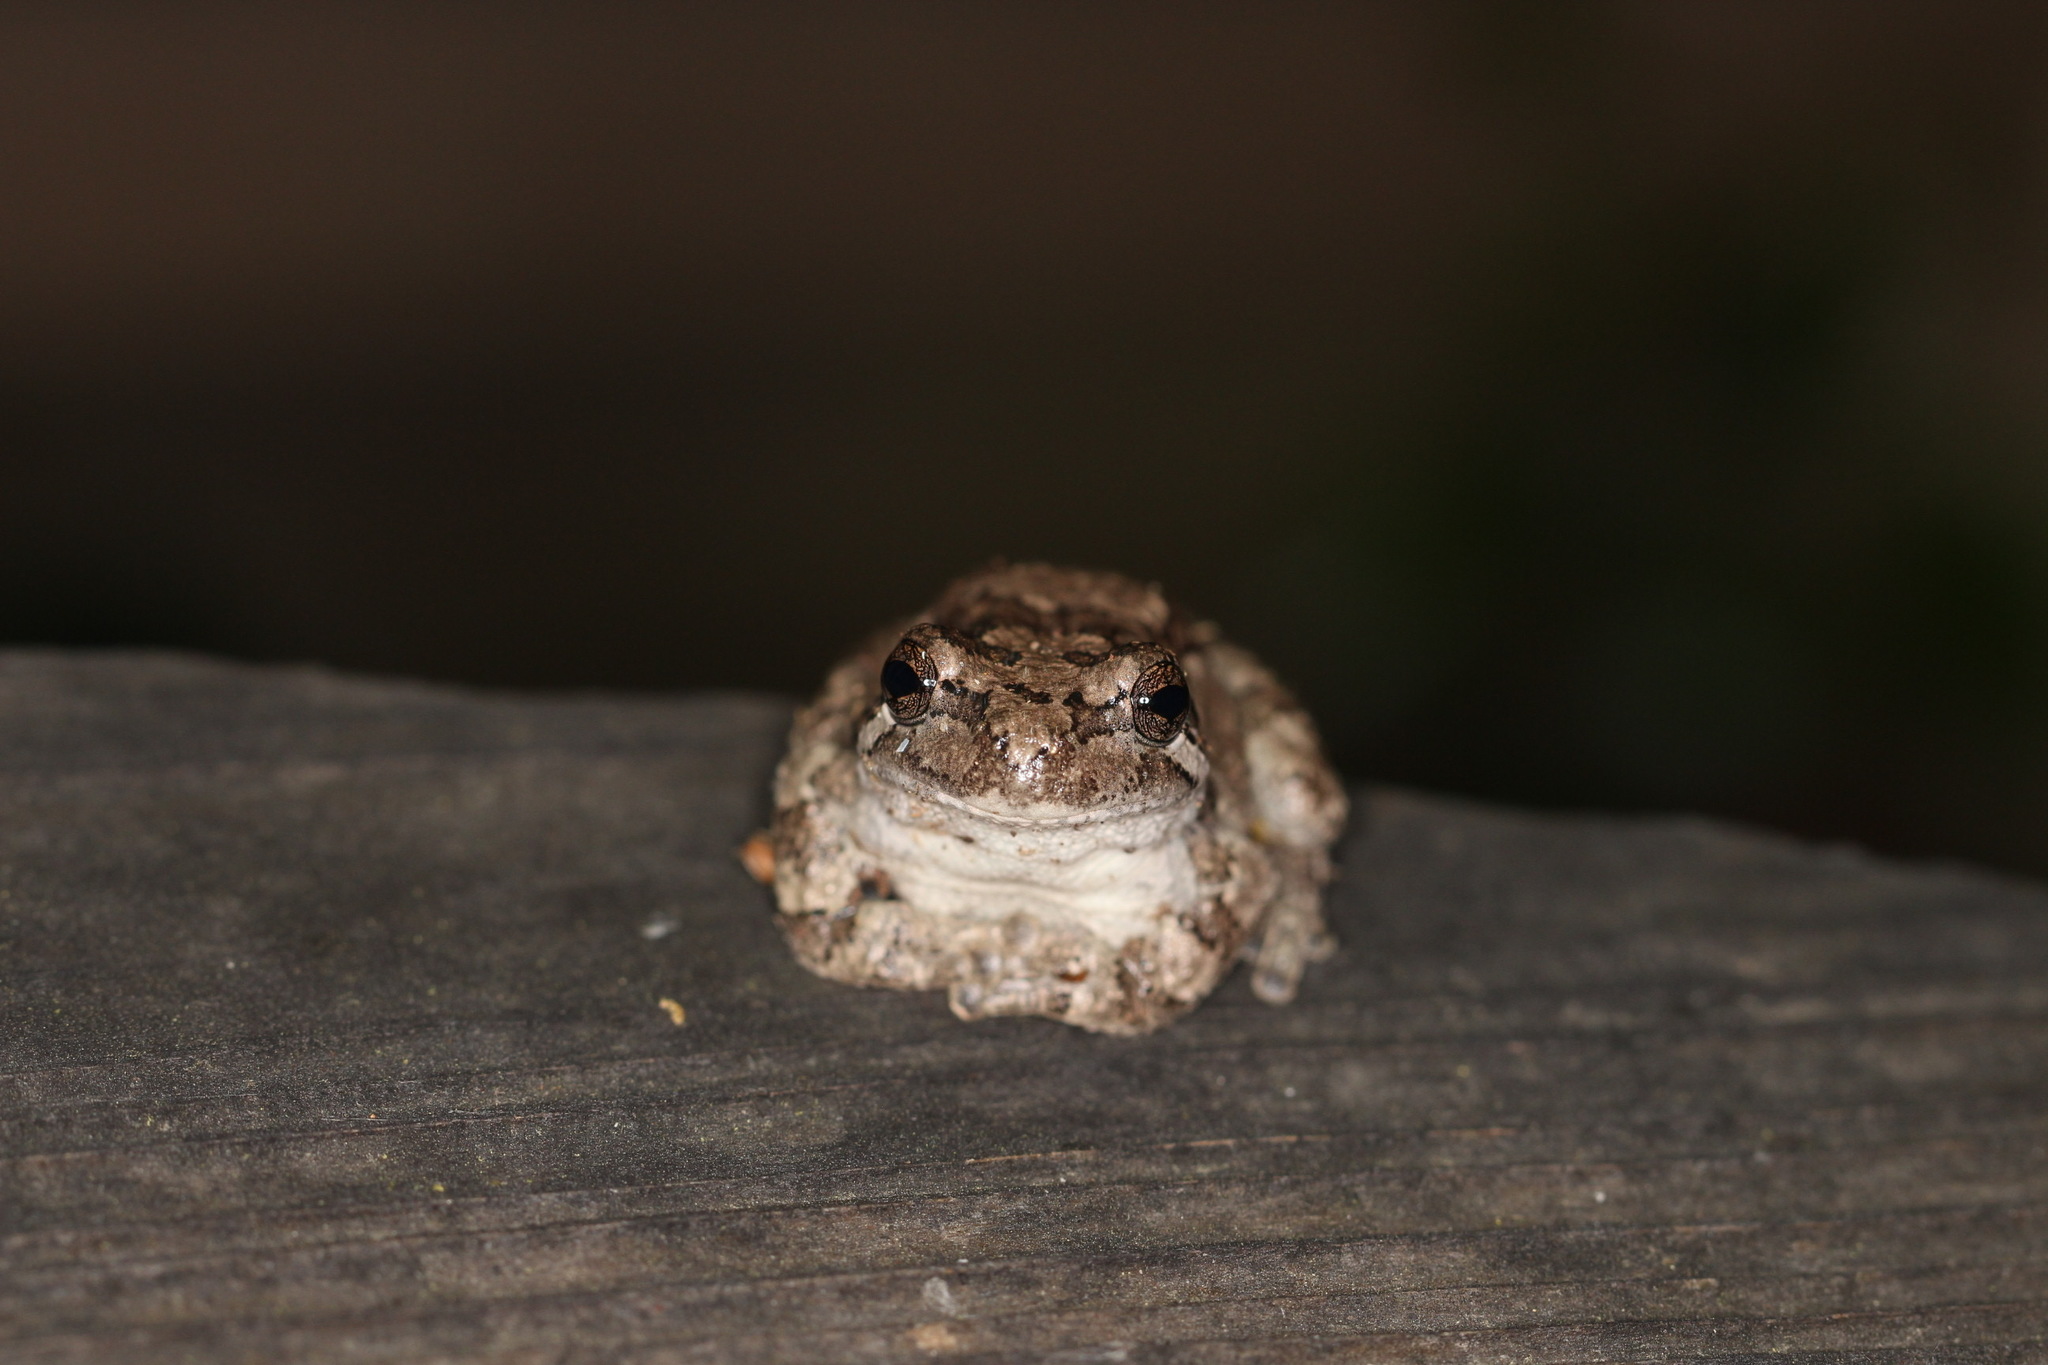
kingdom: Animalia
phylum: Chordata
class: Amphibia
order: Anura
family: Hylidae
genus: Hyla
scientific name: Hyla
